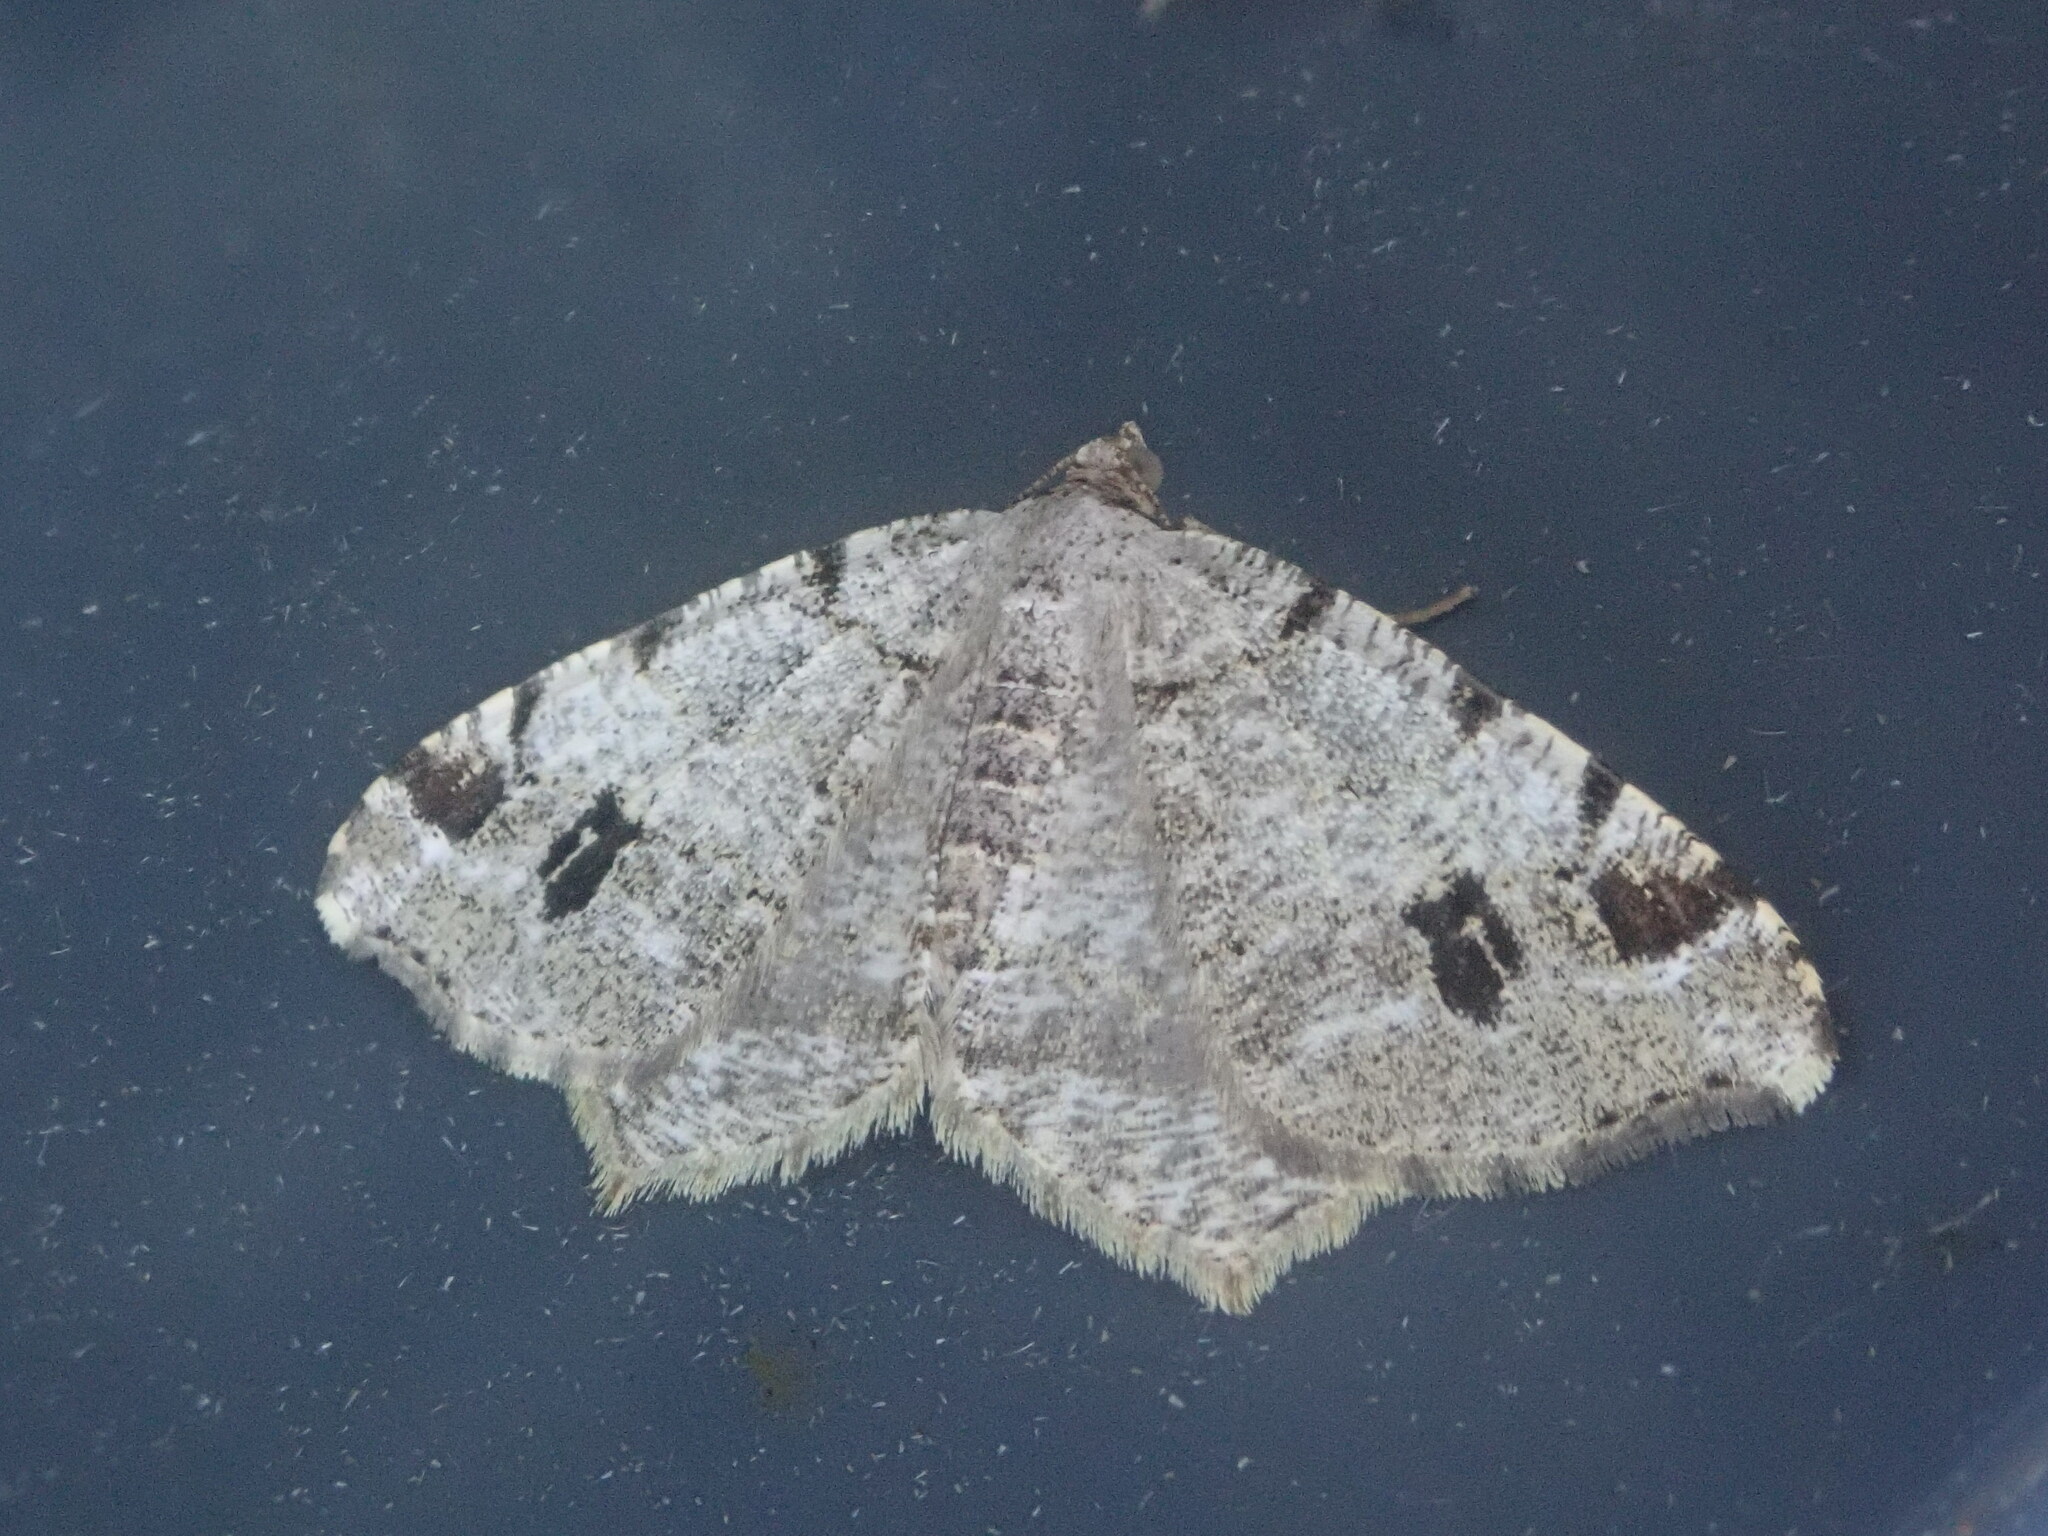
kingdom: Animalia
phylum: Arthropoda
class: Insecta
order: Lepidoptera
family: Geometridae
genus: Macaria
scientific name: Macaria pinistrobata
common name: White pine angle
